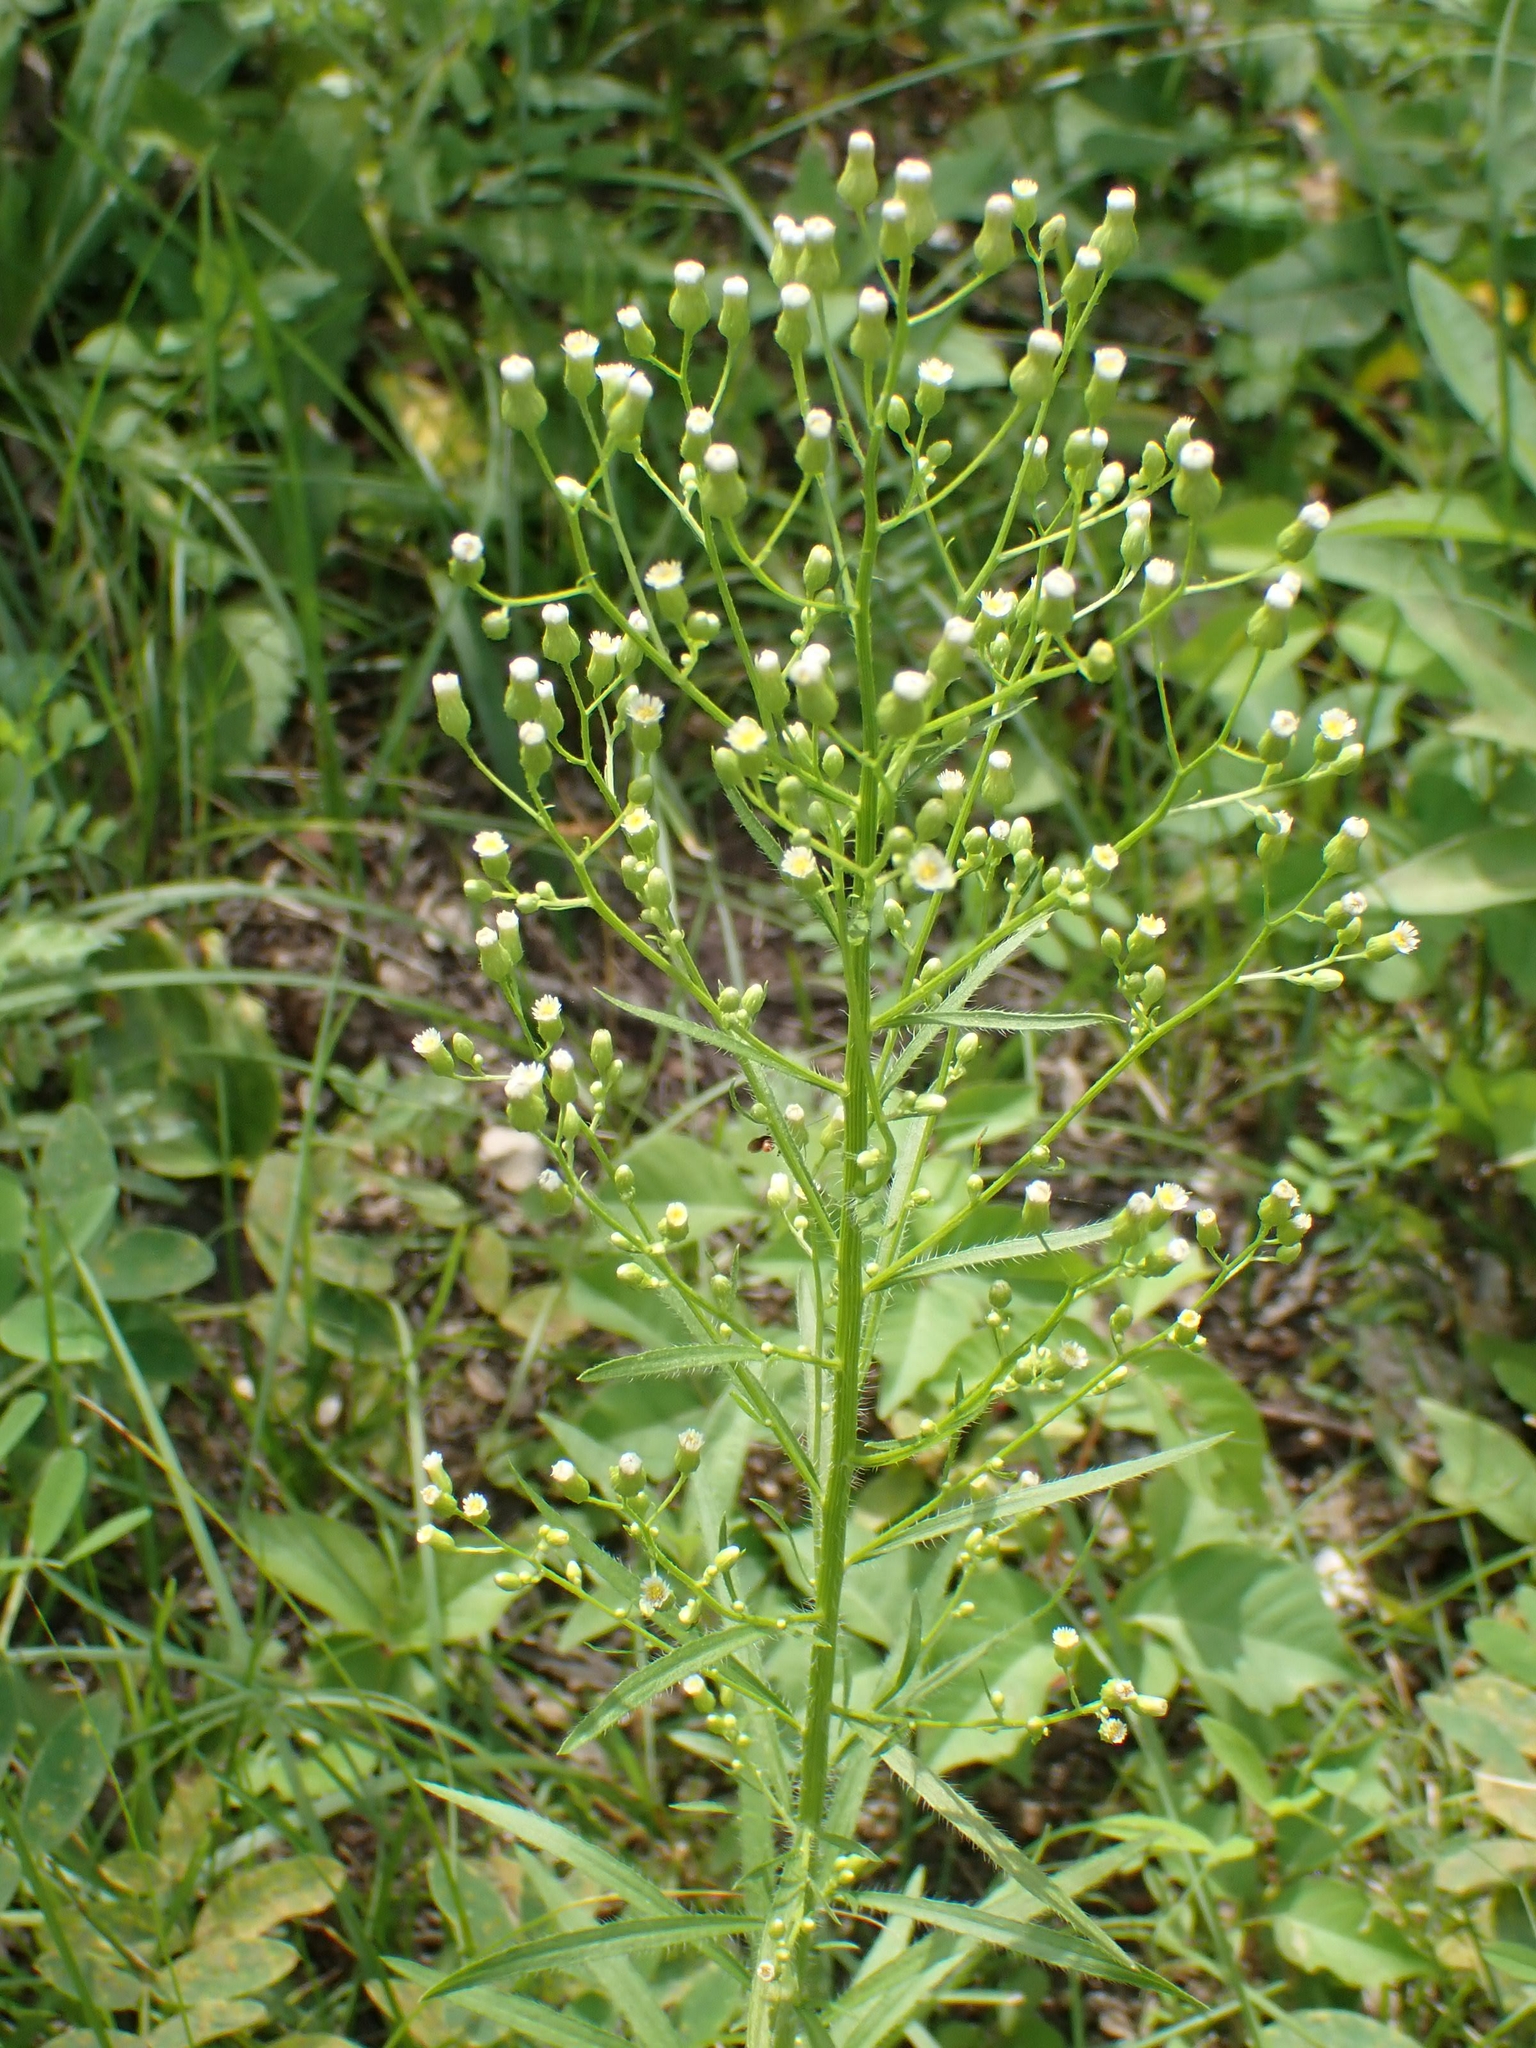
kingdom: Plantae
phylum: Tracheophyta
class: Magnoliopsida
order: Asterales
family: Asteraceae
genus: Erigeron
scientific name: Erigeron canadensis
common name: Canadian fleabane
